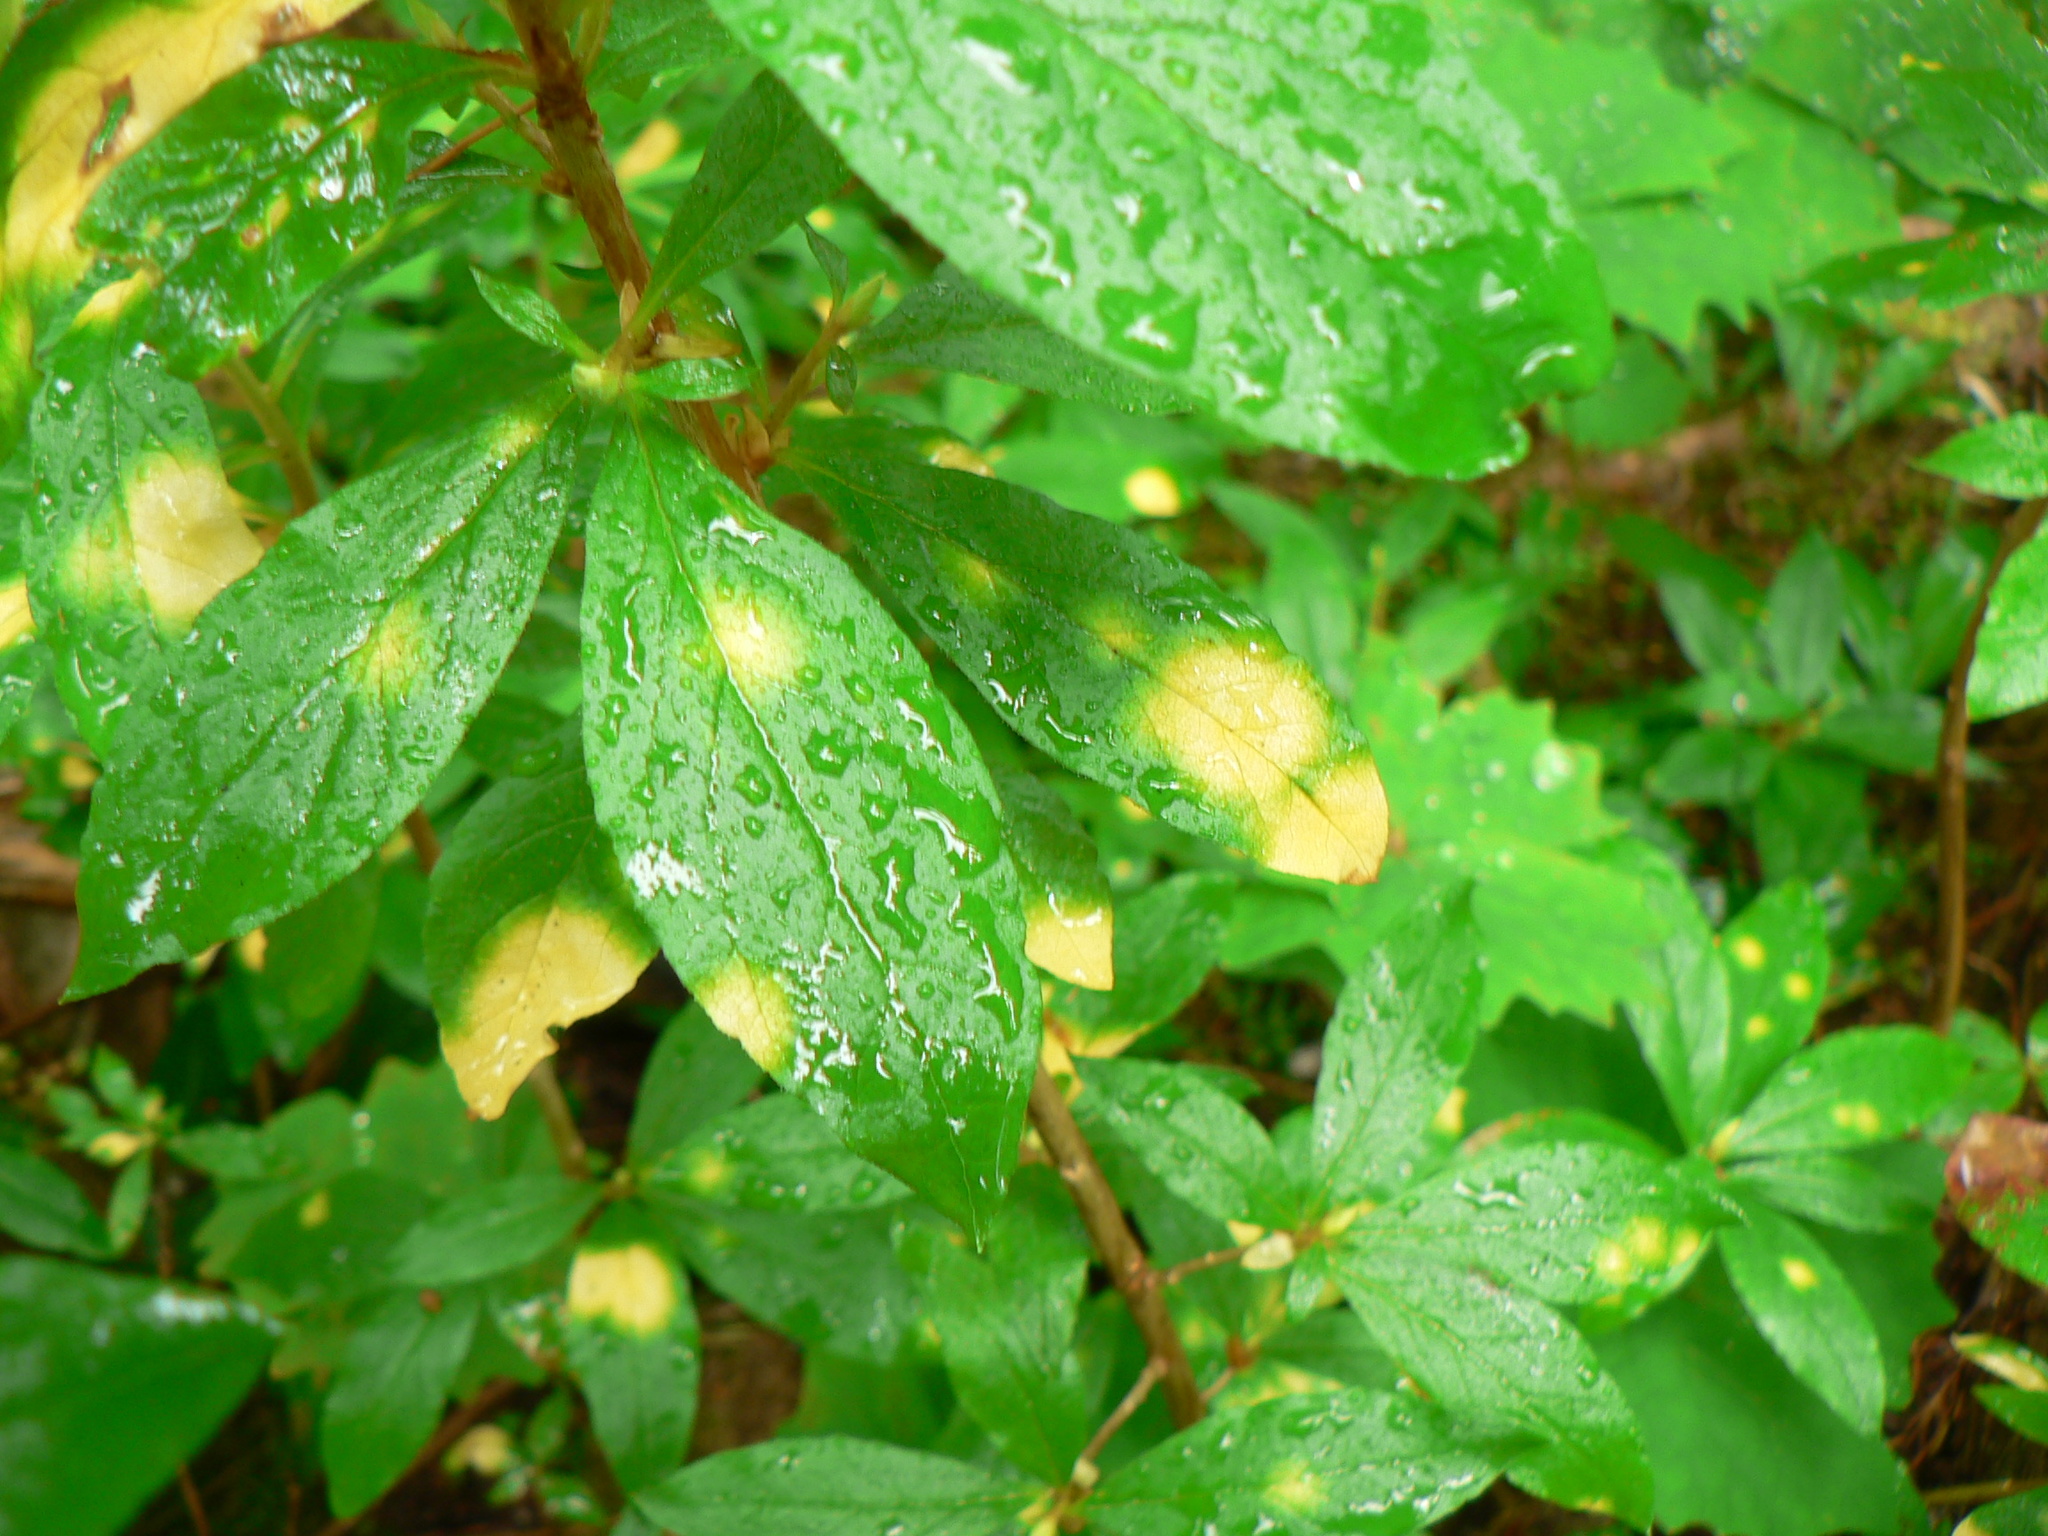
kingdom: Fungi
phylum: Basidiomycota
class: Exobasidiomycetes
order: Exobasidiales
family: Exobasidiaceae
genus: Exobasidium
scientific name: Exobasidium burtii
